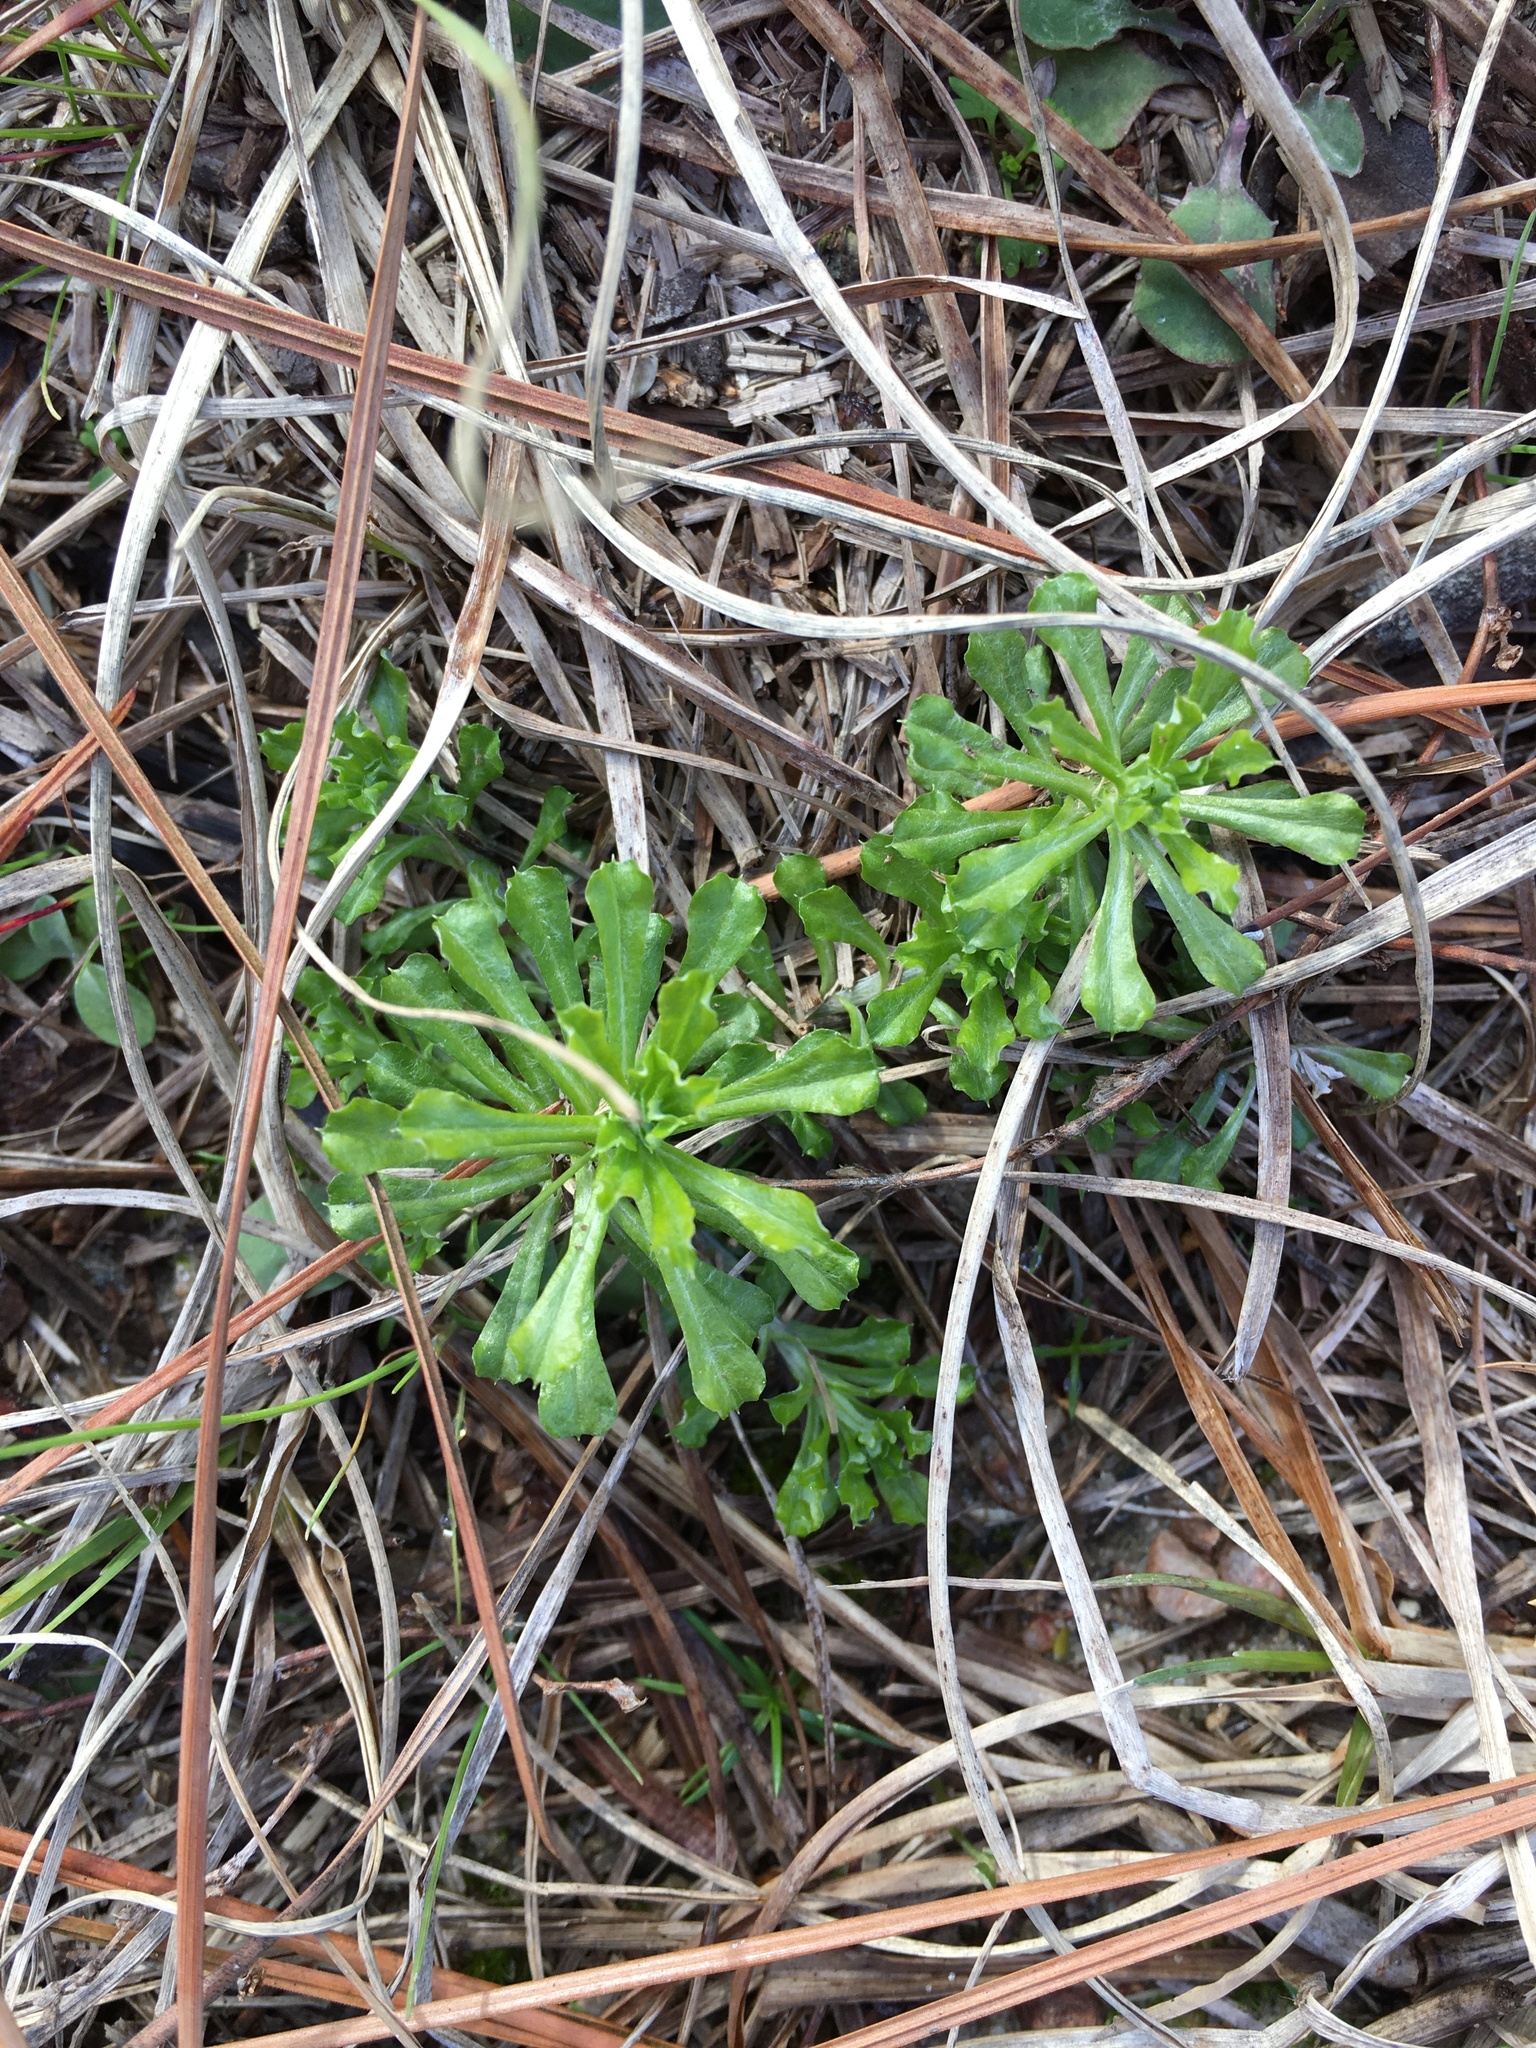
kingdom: Plantae
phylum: Tracheophyta
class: Magnoliopsida
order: Asterales
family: Asteraceae
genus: Facelis
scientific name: Facelis retusa
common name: Annual trampweed
